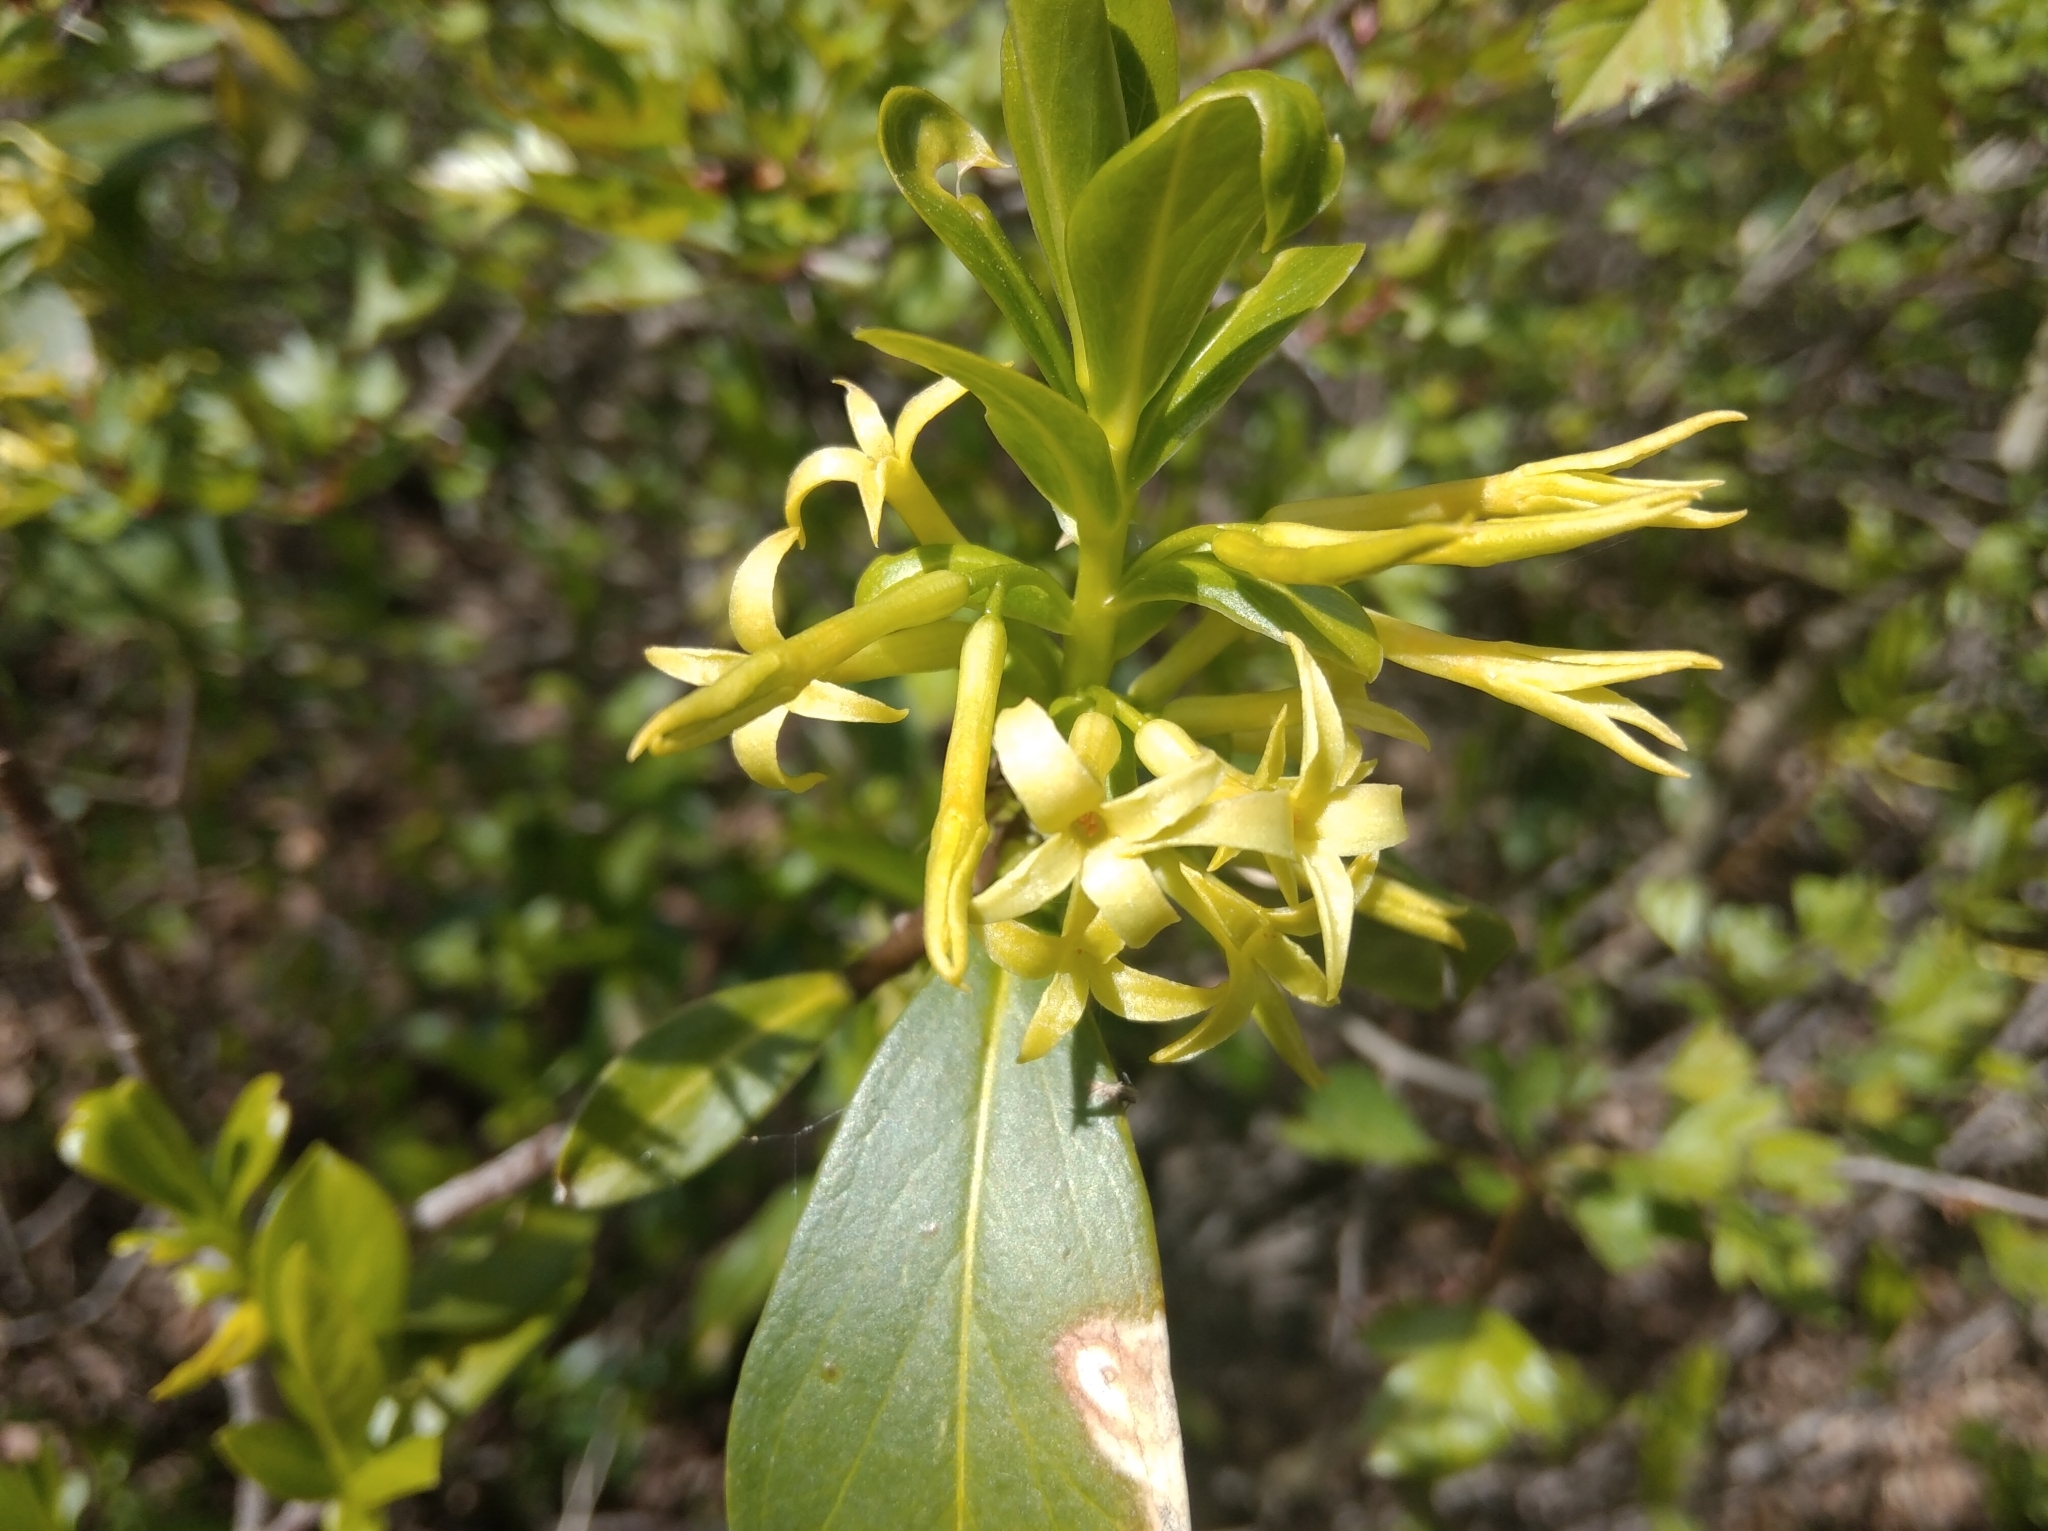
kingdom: Plantae
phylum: Tracheophyta
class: Magnoliopsida
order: Malvales
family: Thymelaeaceae
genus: Daphne
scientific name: Daphne pontica
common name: Twin-flower daphne
